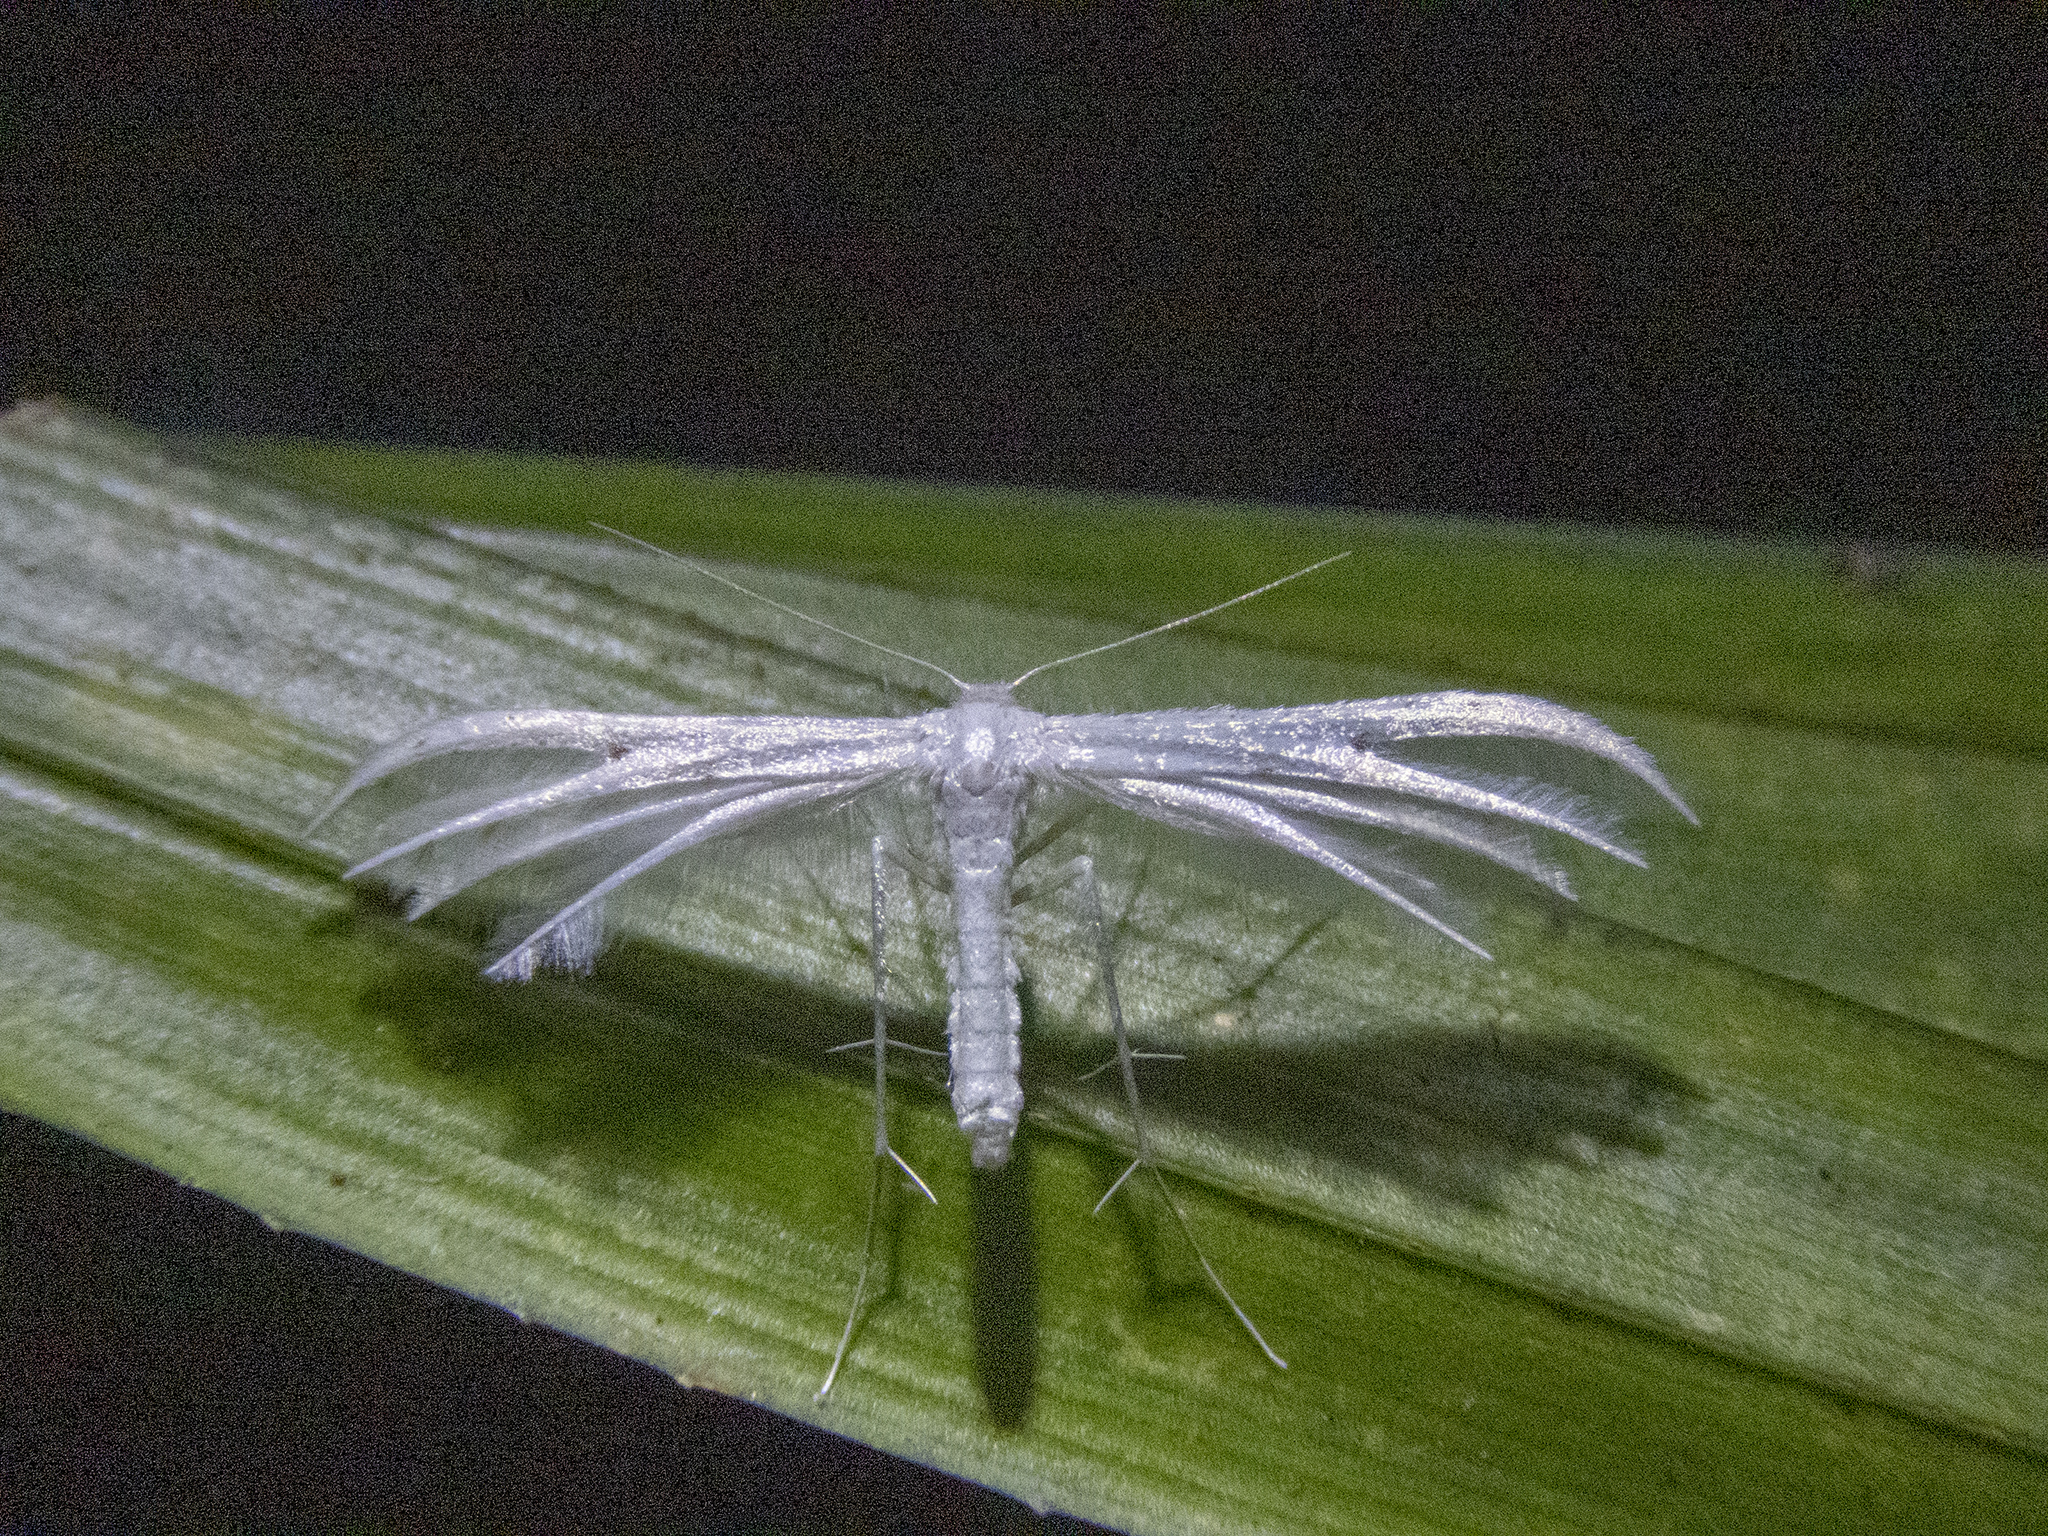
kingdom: Animalia
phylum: Arthropoda
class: Insecta
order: Lepidoptera
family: Pterophoridae
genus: Pterophorus
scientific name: Pterophorus monospilalis
